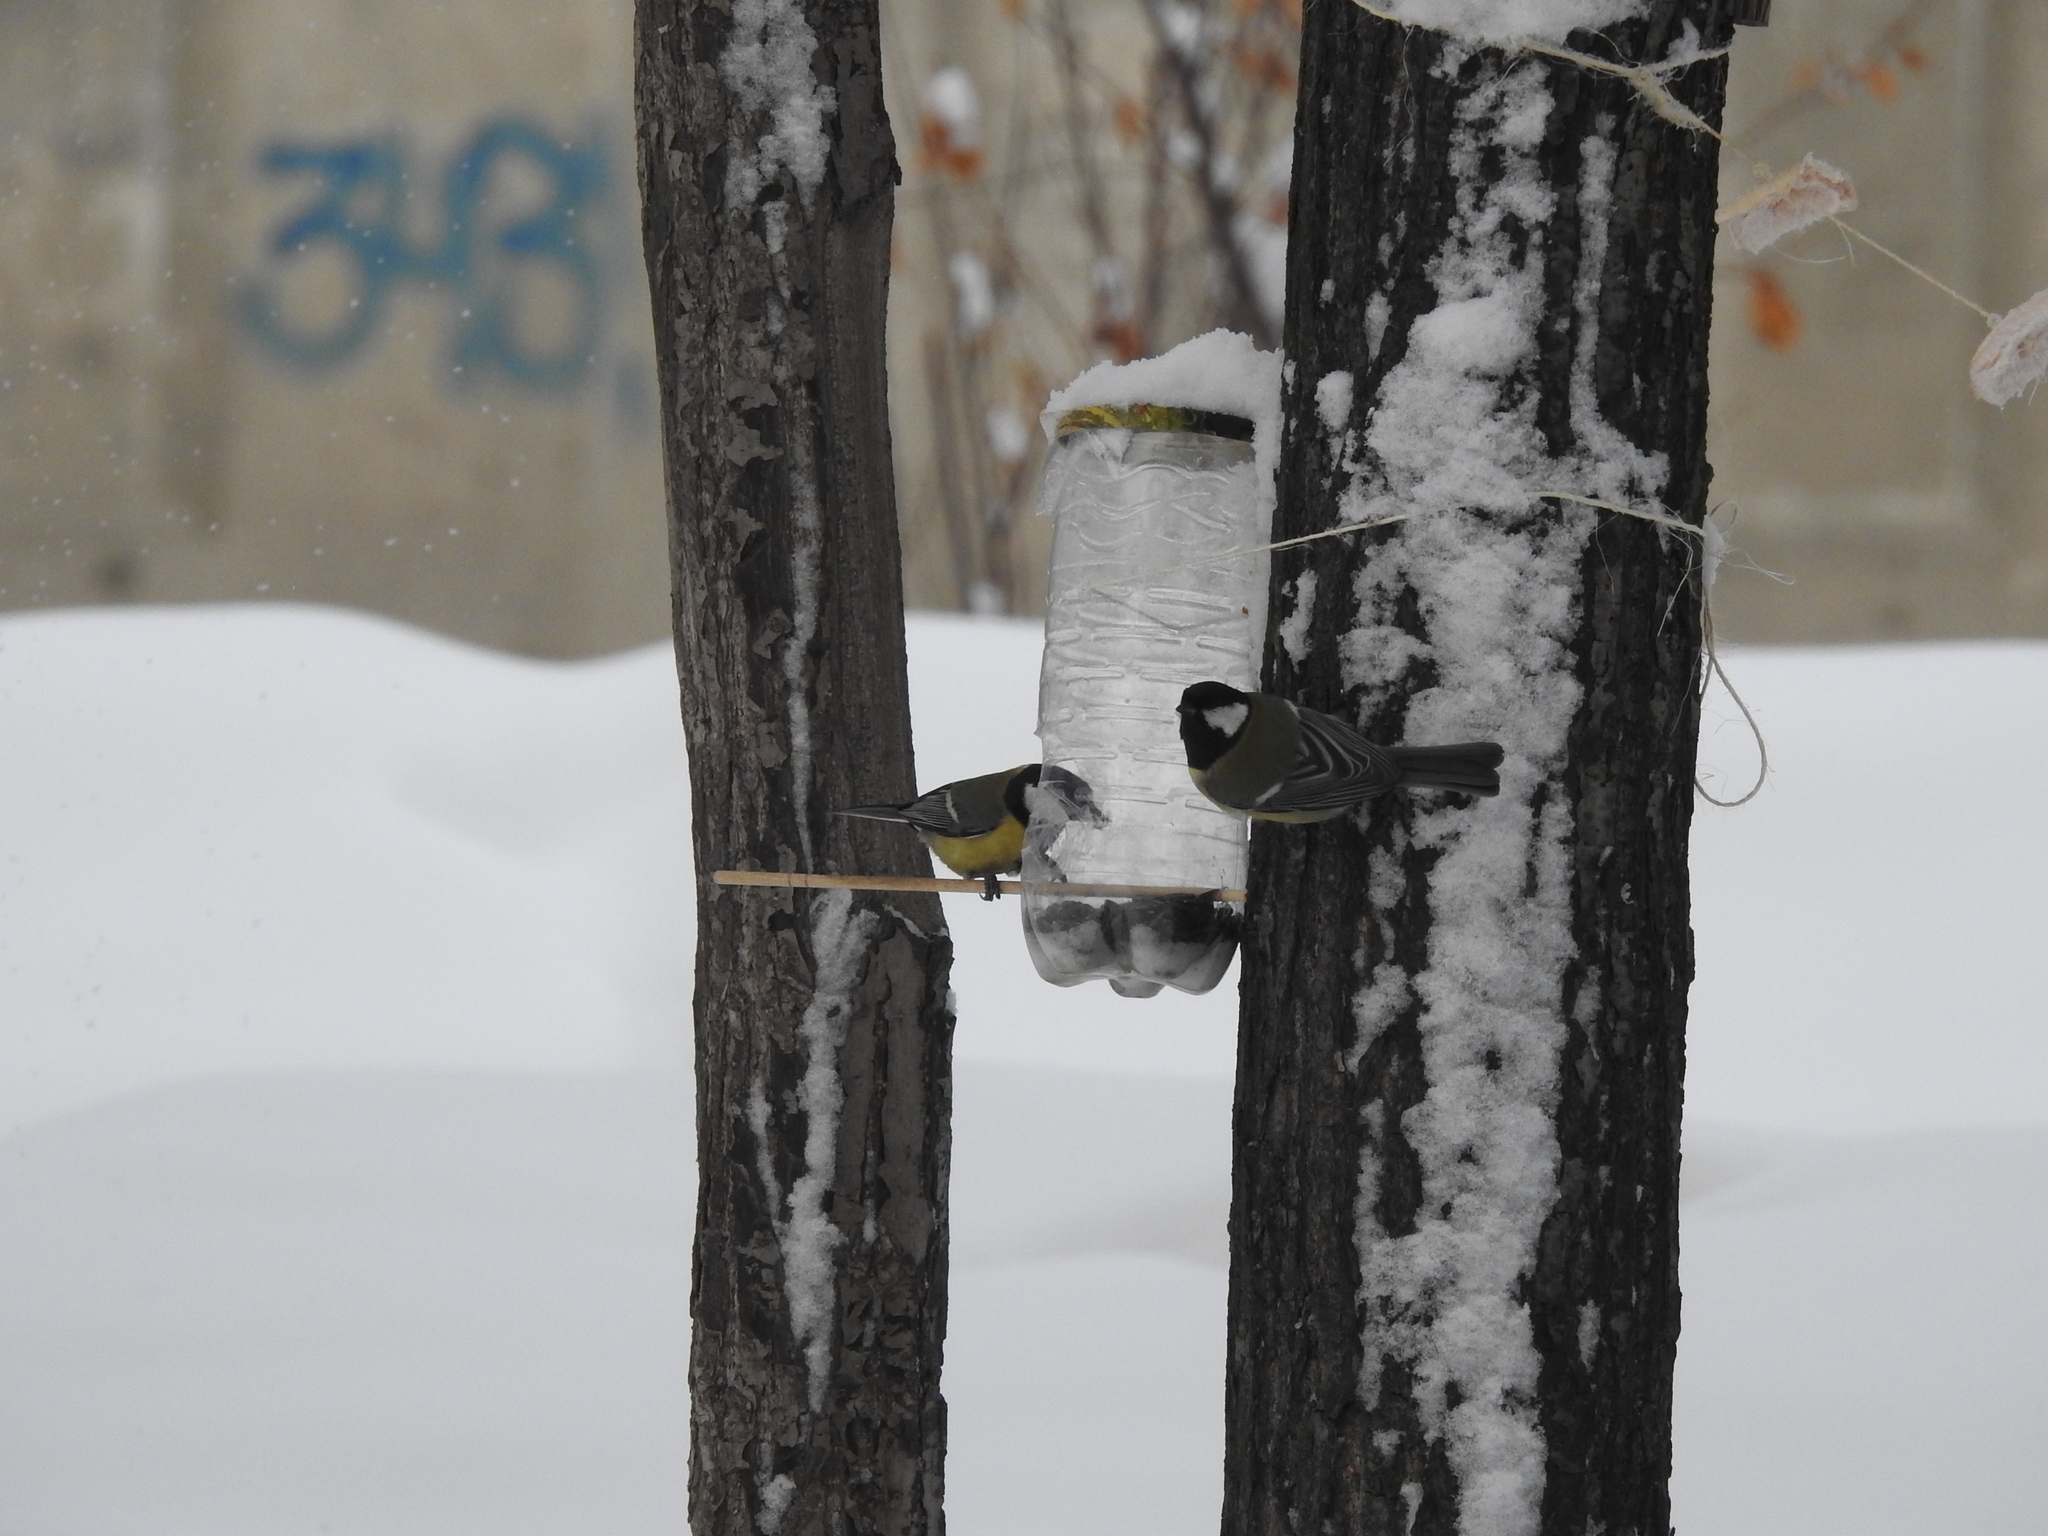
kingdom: Animalia
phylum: Chordata
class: Aves
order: Passeriformes
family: Paridae
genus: Parus
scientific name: Parus major
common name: Great tit
